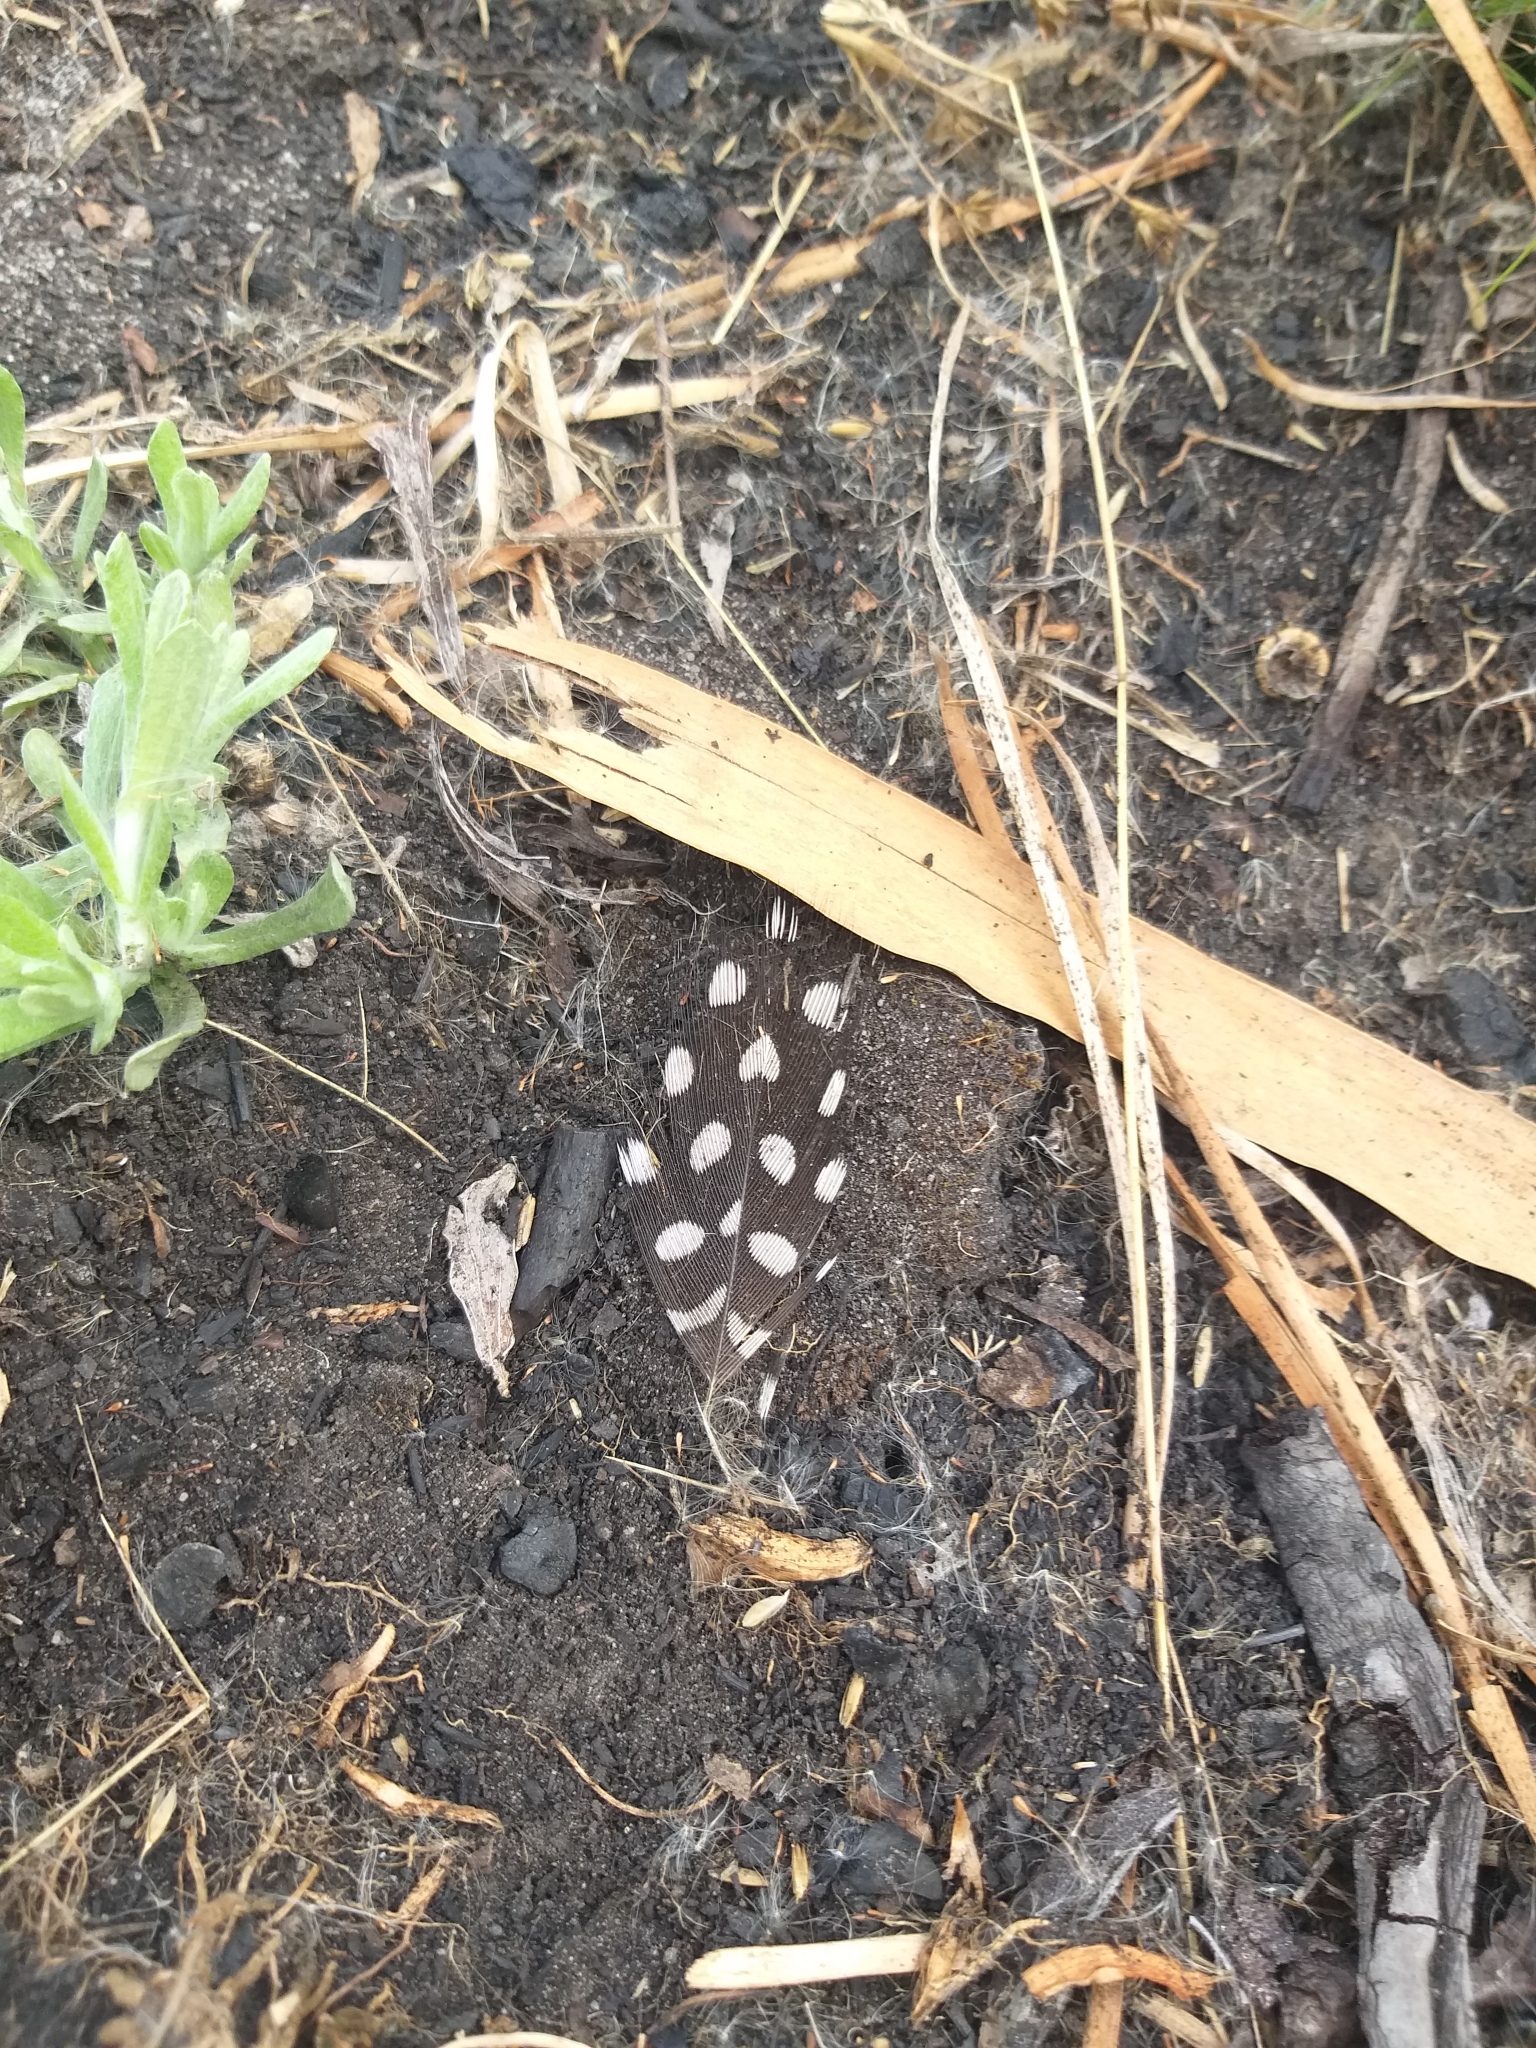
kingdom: Animalia
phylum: Chordata
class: Aves
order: Galliformes
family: Numididae
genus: Numida
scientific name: Numida meleagris
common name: Helmeted guineafowl
